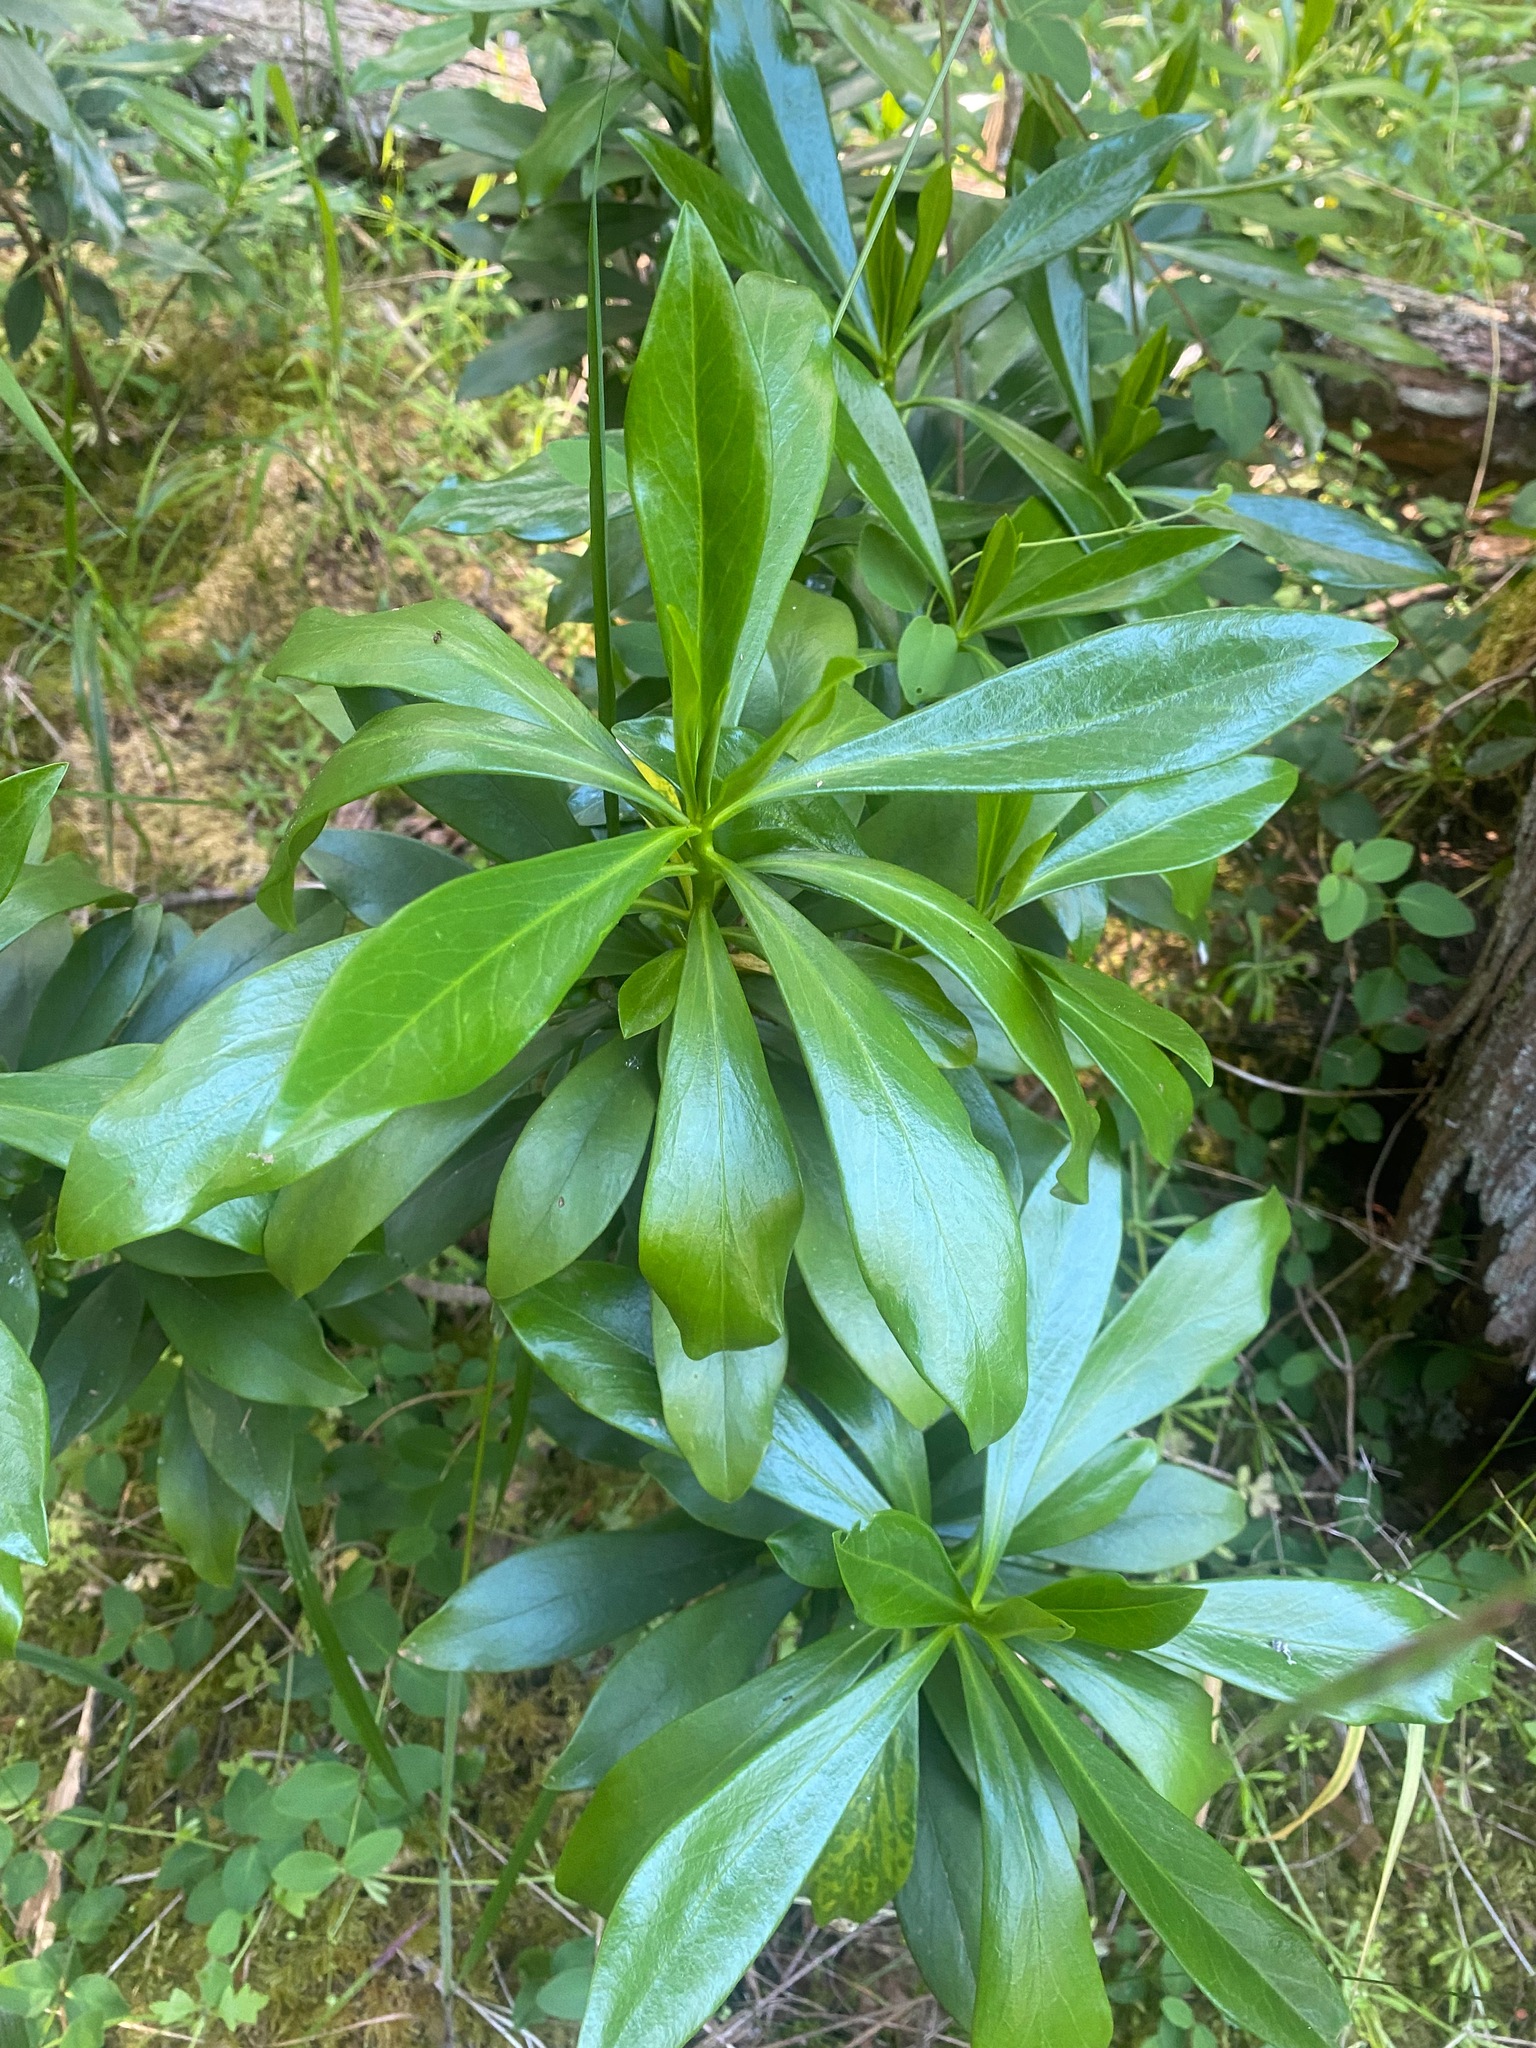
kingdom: Plantae
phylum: Tracheophyta
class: Magnoliopsida
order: Malvales
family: Thymelaeaceae
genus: Daphne
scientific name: Daphne laureola
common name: Spurge-laurel
